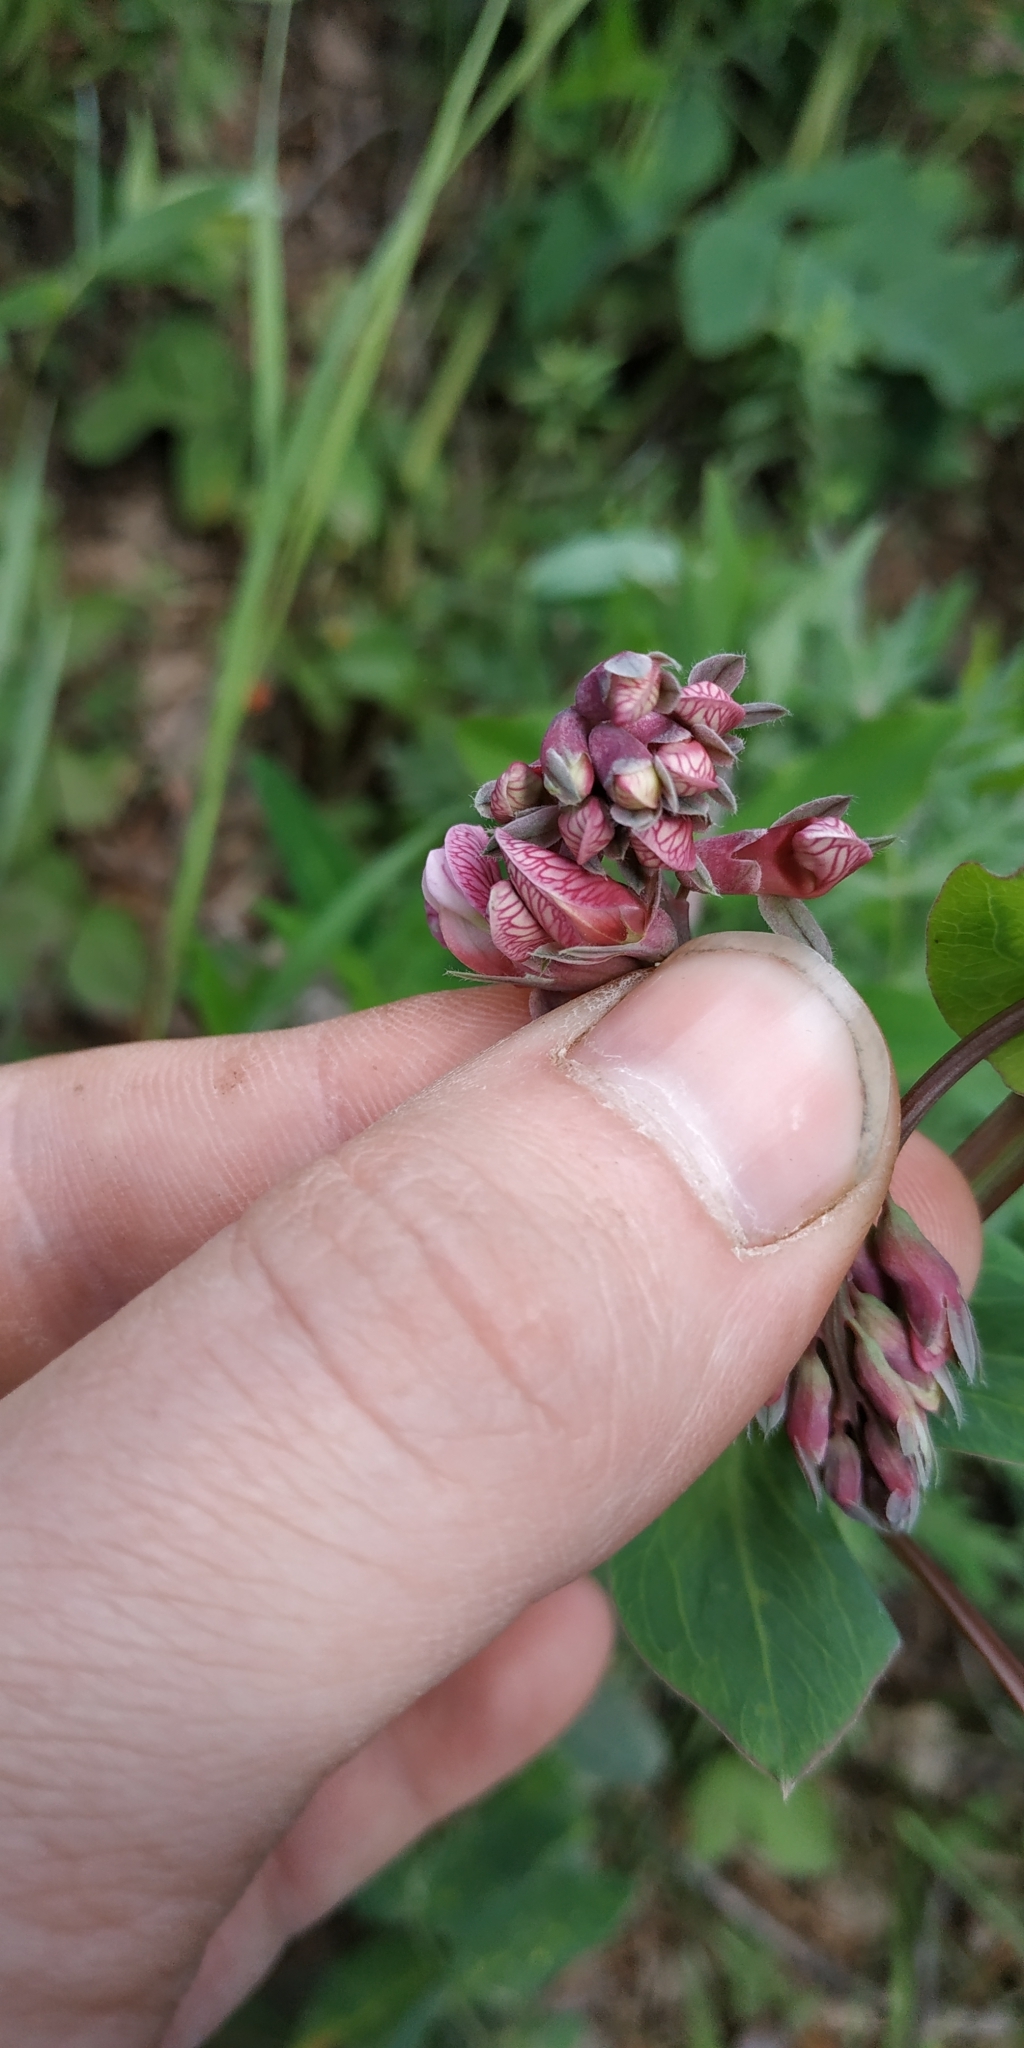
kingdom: Plantae
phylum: Tracheophyta
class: Magnoliopsida
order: Fabales
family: Fabaceae
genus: Lathyrus
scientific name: Lathyrus pisiformis
